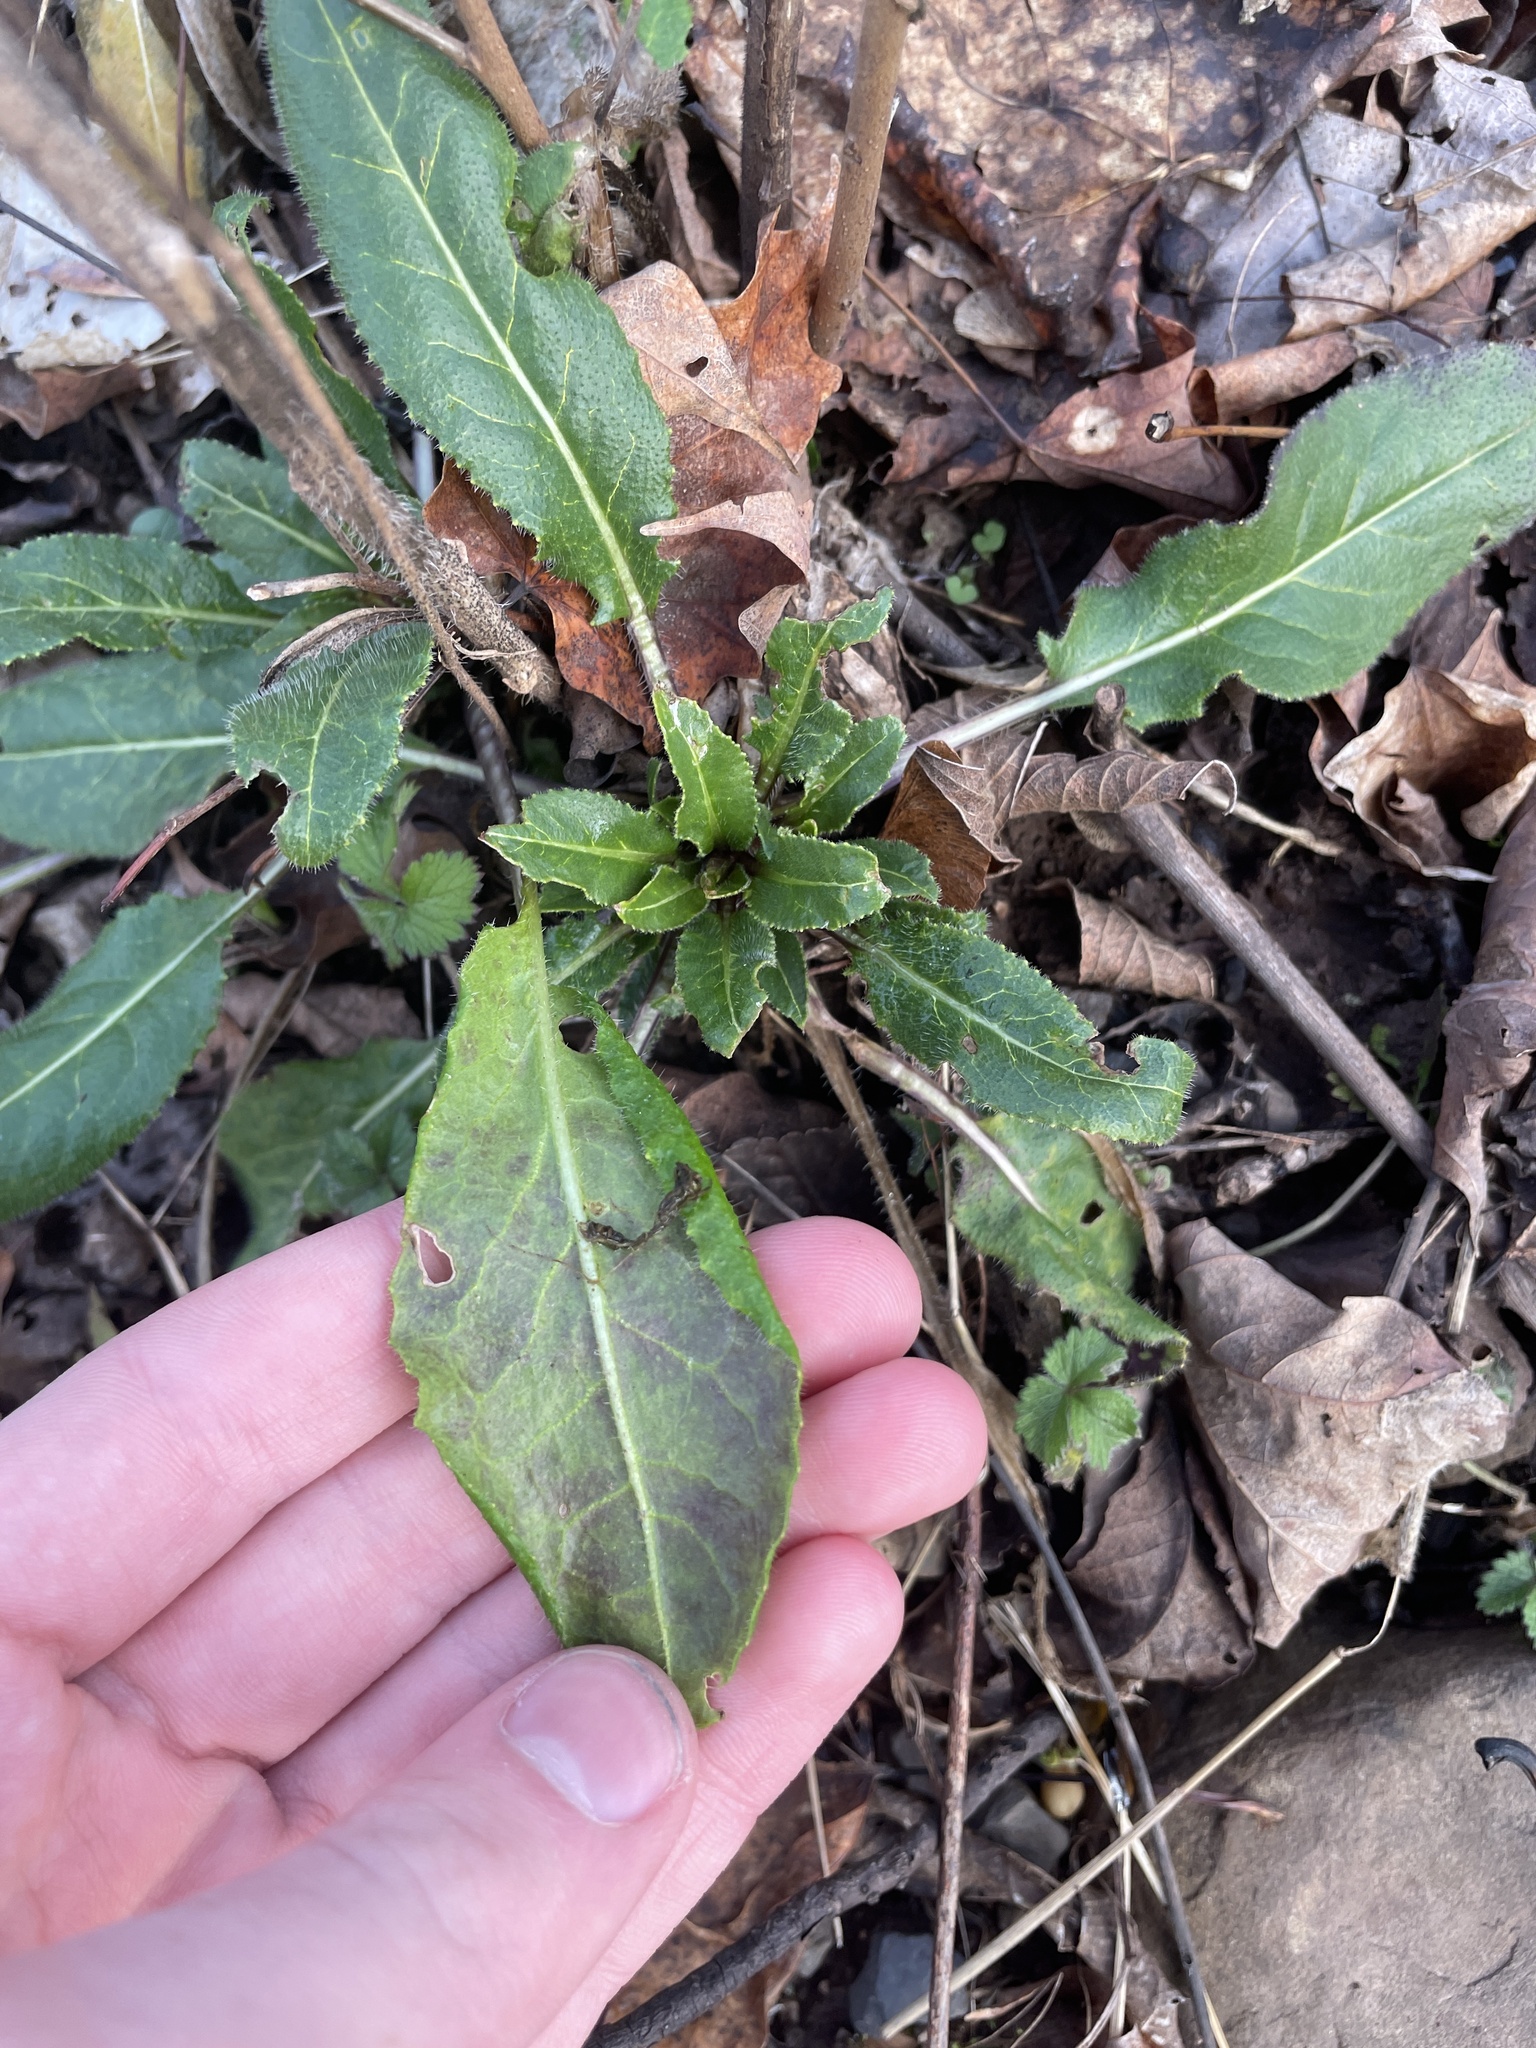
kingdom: Plantae
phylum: Tracheophyta
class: Magnoliopsida
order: Brassicales
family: Brassicaceae
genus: Hesperis
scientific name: Hesperis matronalis
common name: Dame's-violet
